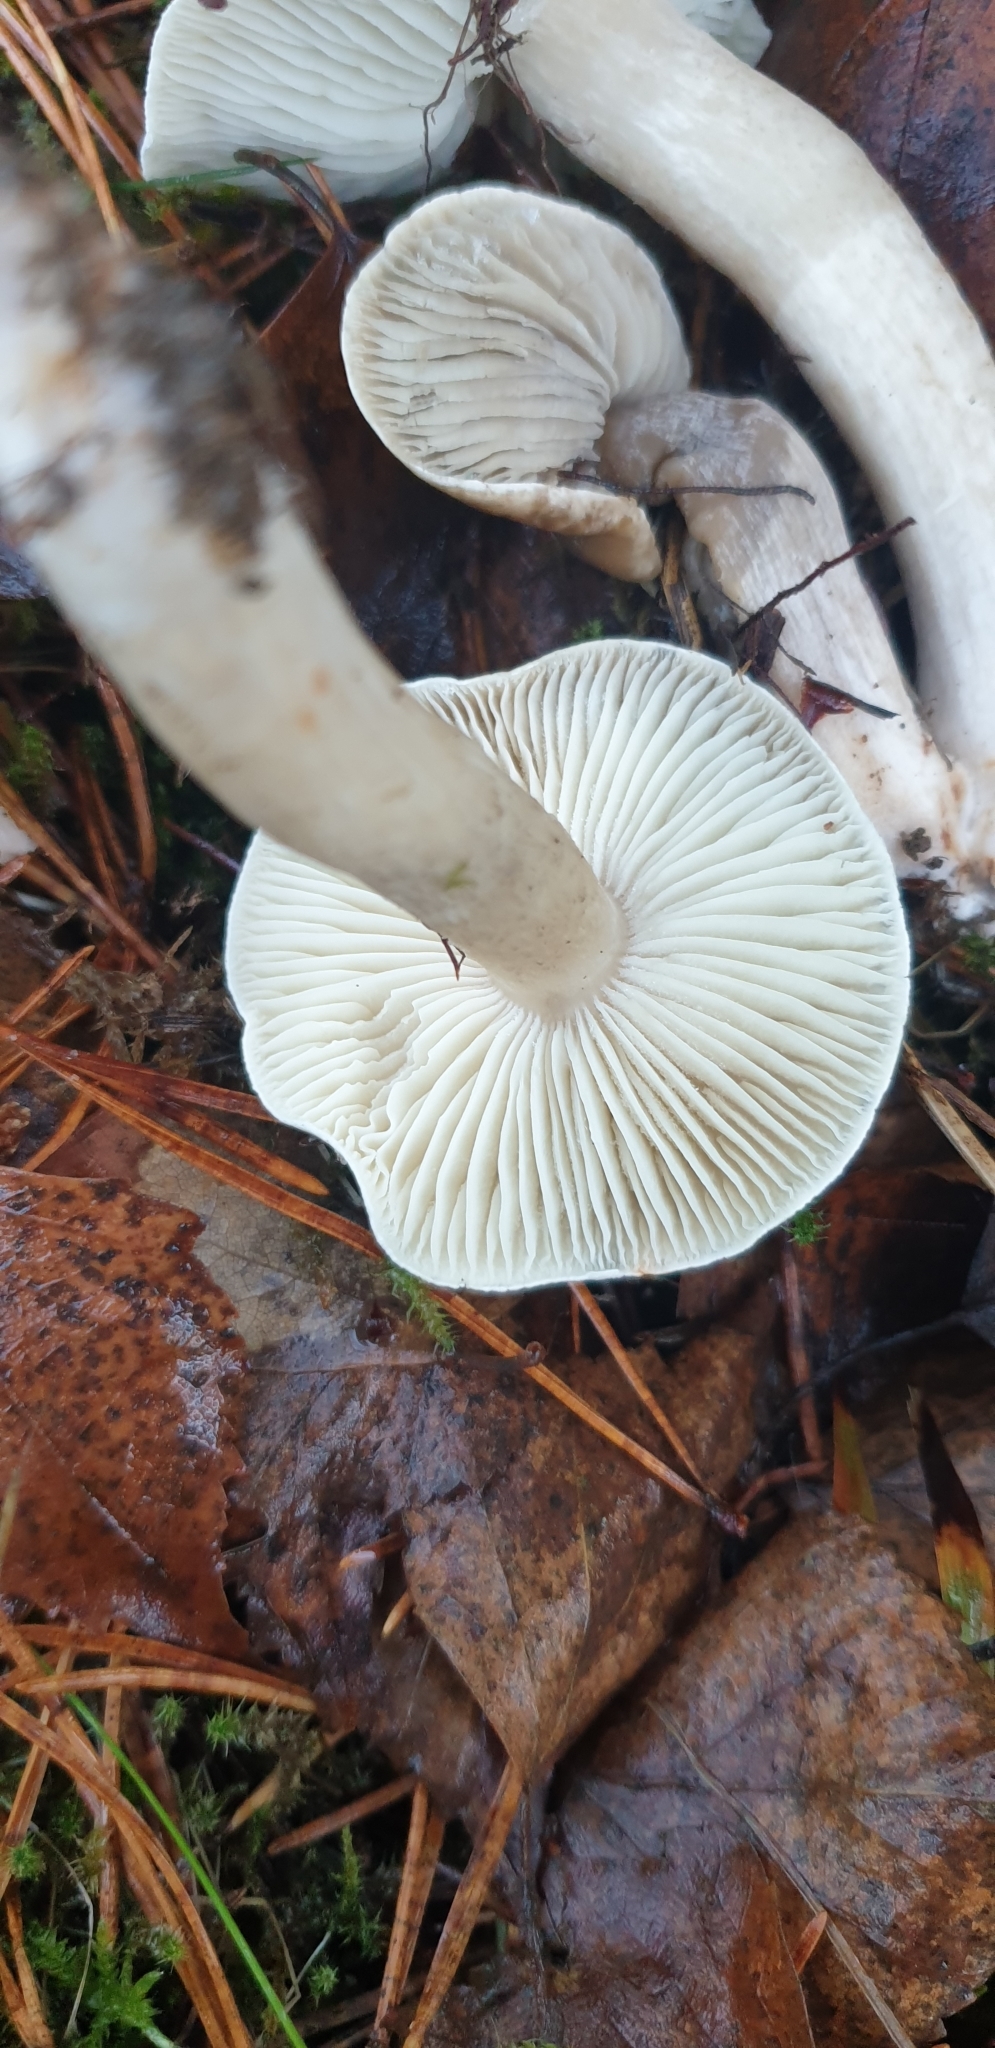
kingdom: Fungi
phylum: Basidiomycota
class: Agaricomycetes
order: Agaricales
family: Tricholomataceae
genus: Tricholoma
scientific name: Tricholoma terreum
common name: Grey knight
